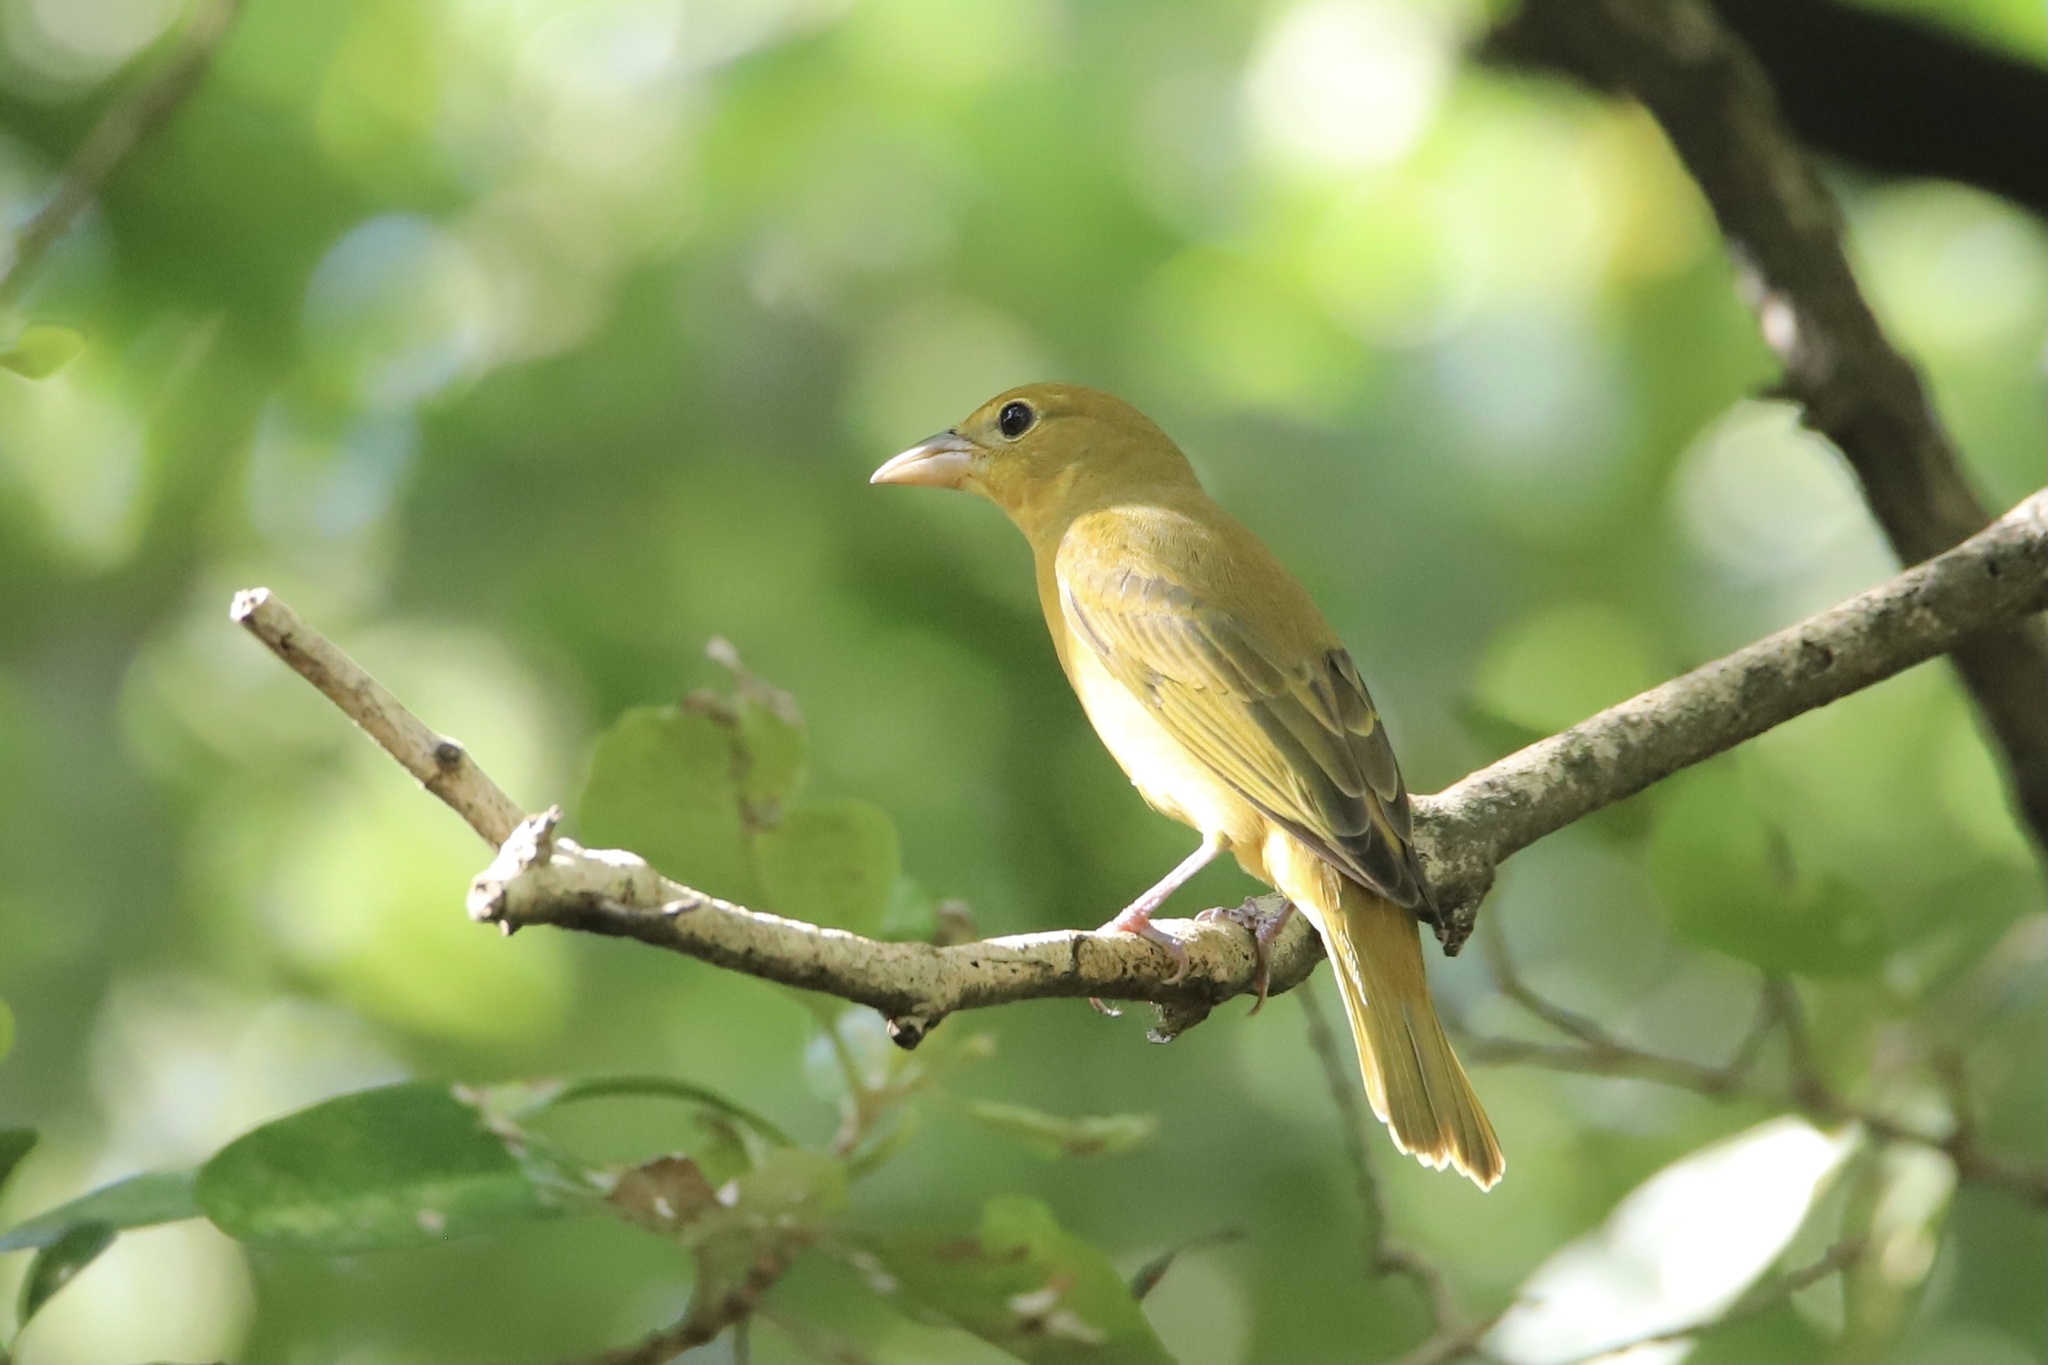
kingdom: Animalia
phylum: Chordata
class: Aves
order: Passeriformes
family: Cardinalidae
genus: Piranga
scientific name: Piranga rubra
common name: Summer tanager
